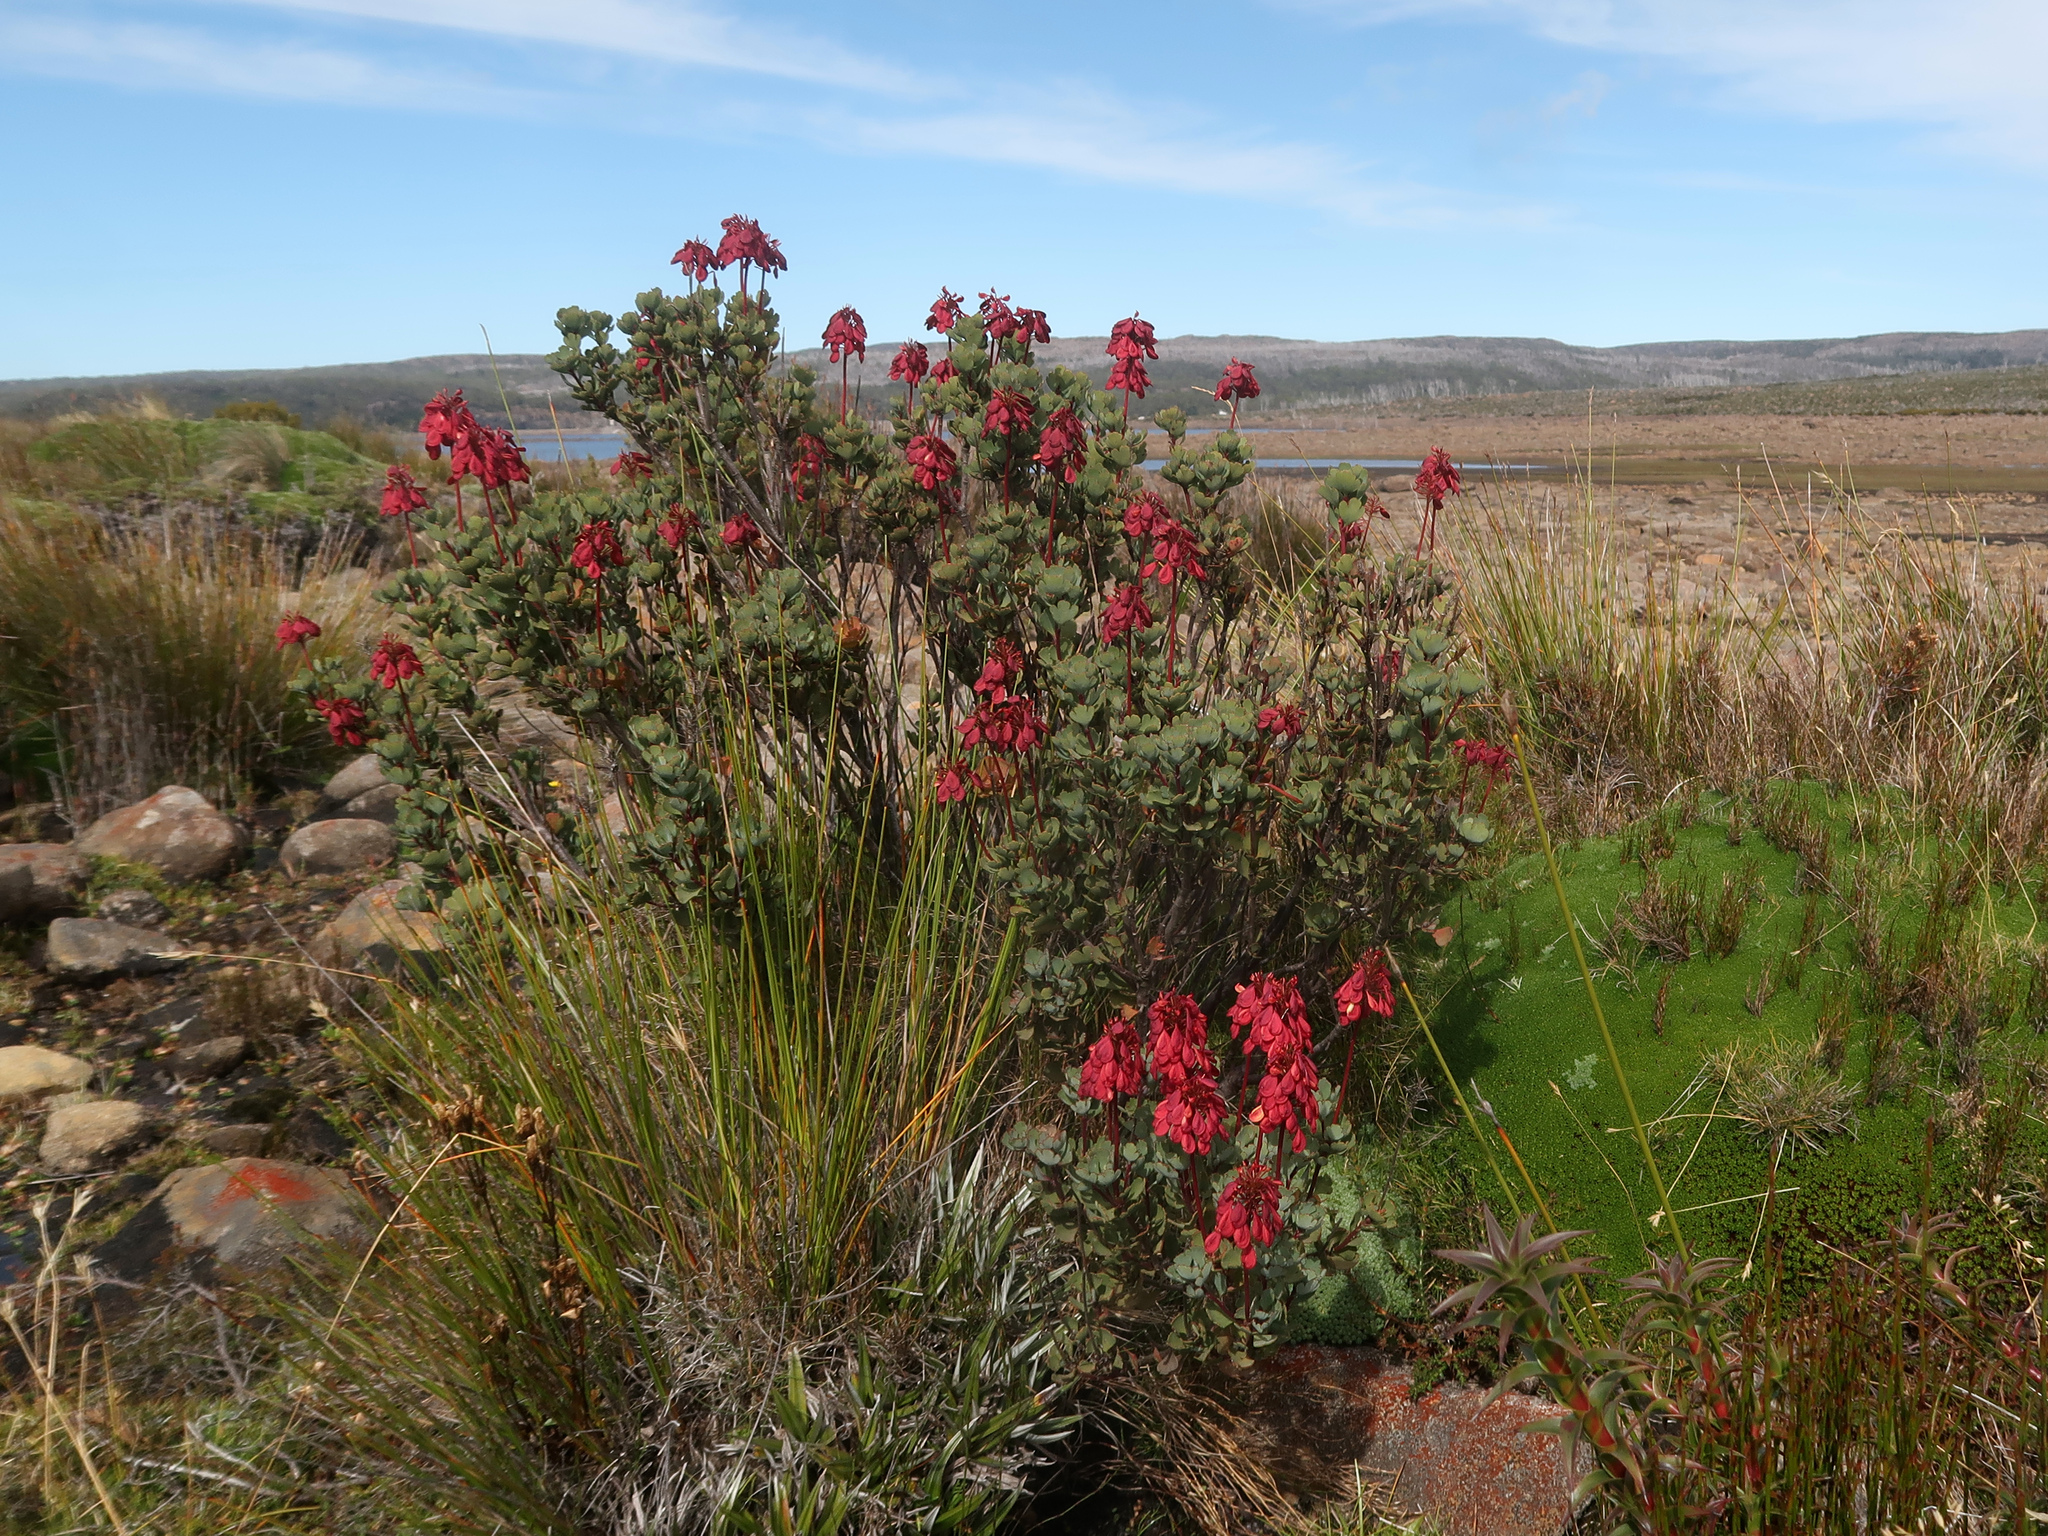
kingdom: Plantae
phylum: Tracheophyta
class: Magnoliopsida
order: Proteales
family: Proteaceae
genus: Bellendena
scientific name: Bellendena montana
